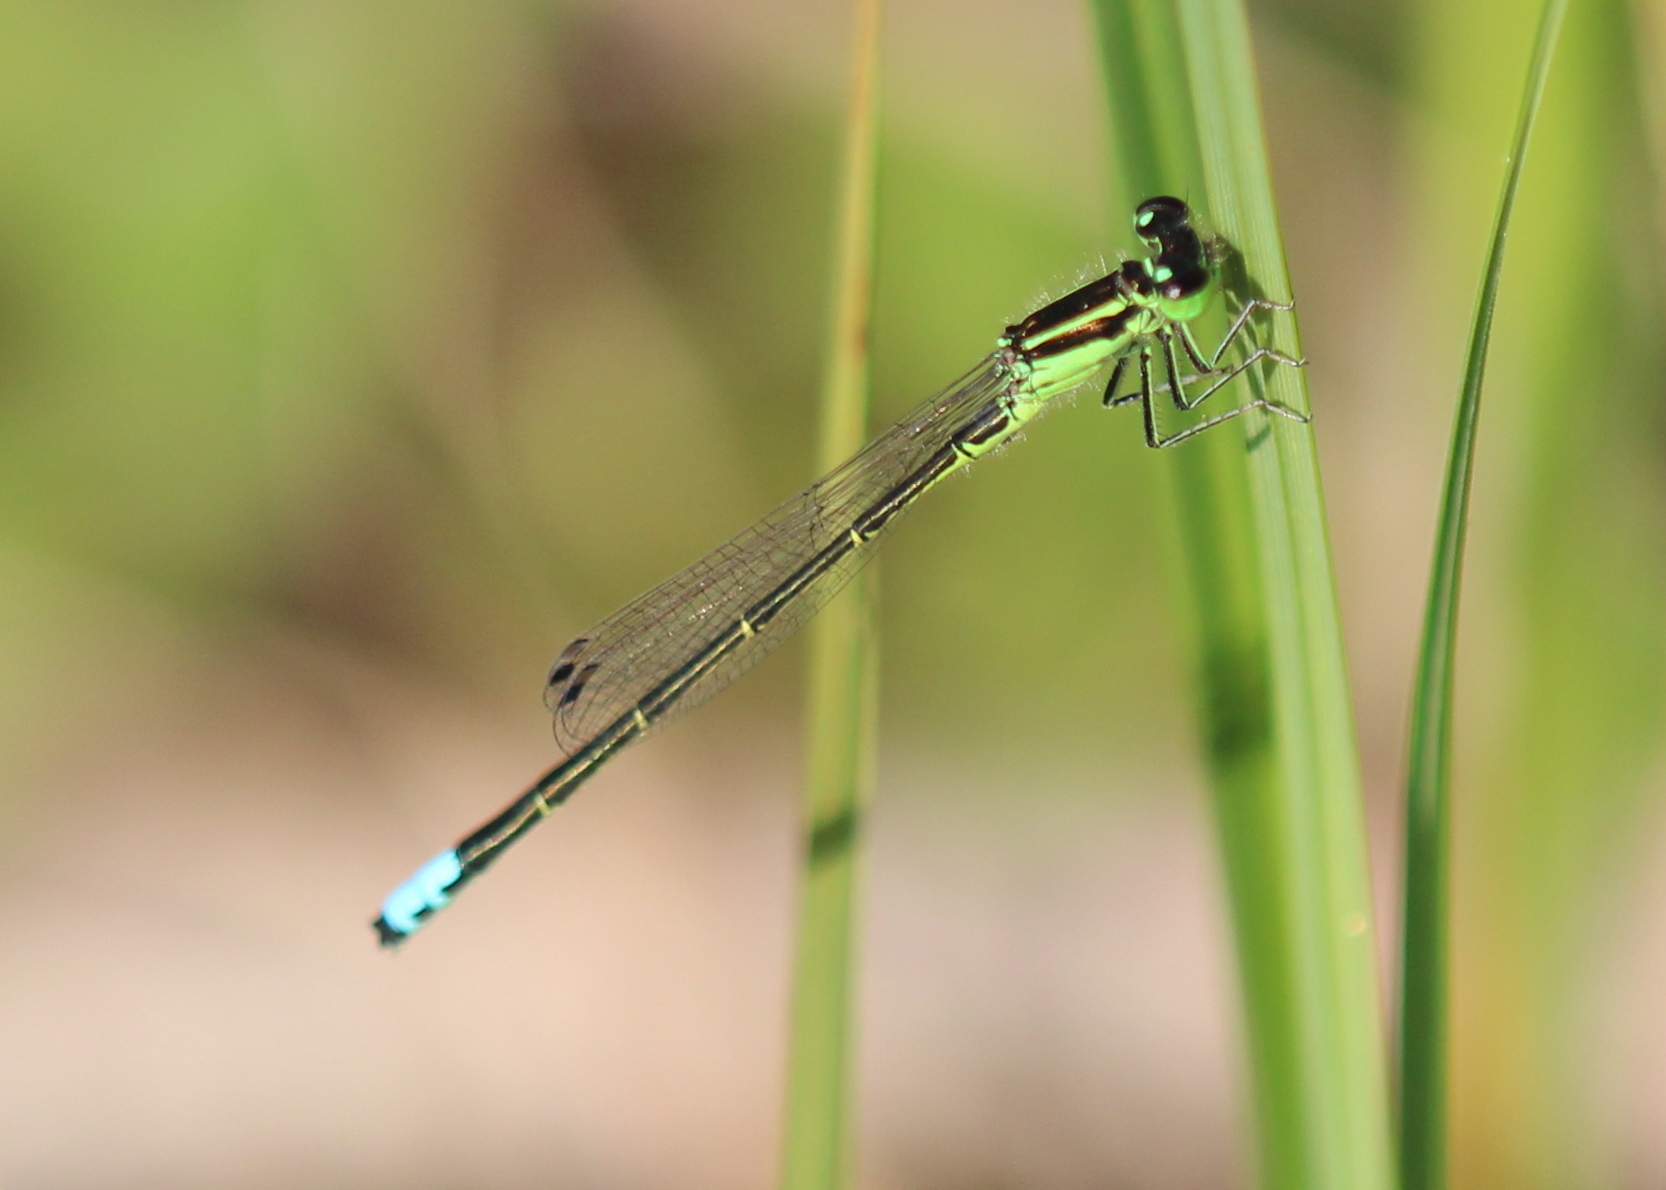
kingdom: Animalia
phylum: Arthropoda
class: Insecta
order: Odonata
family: Coenagrionidae
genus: Ischnura
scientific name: Ischnura verticalis
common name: Eastern forktail
